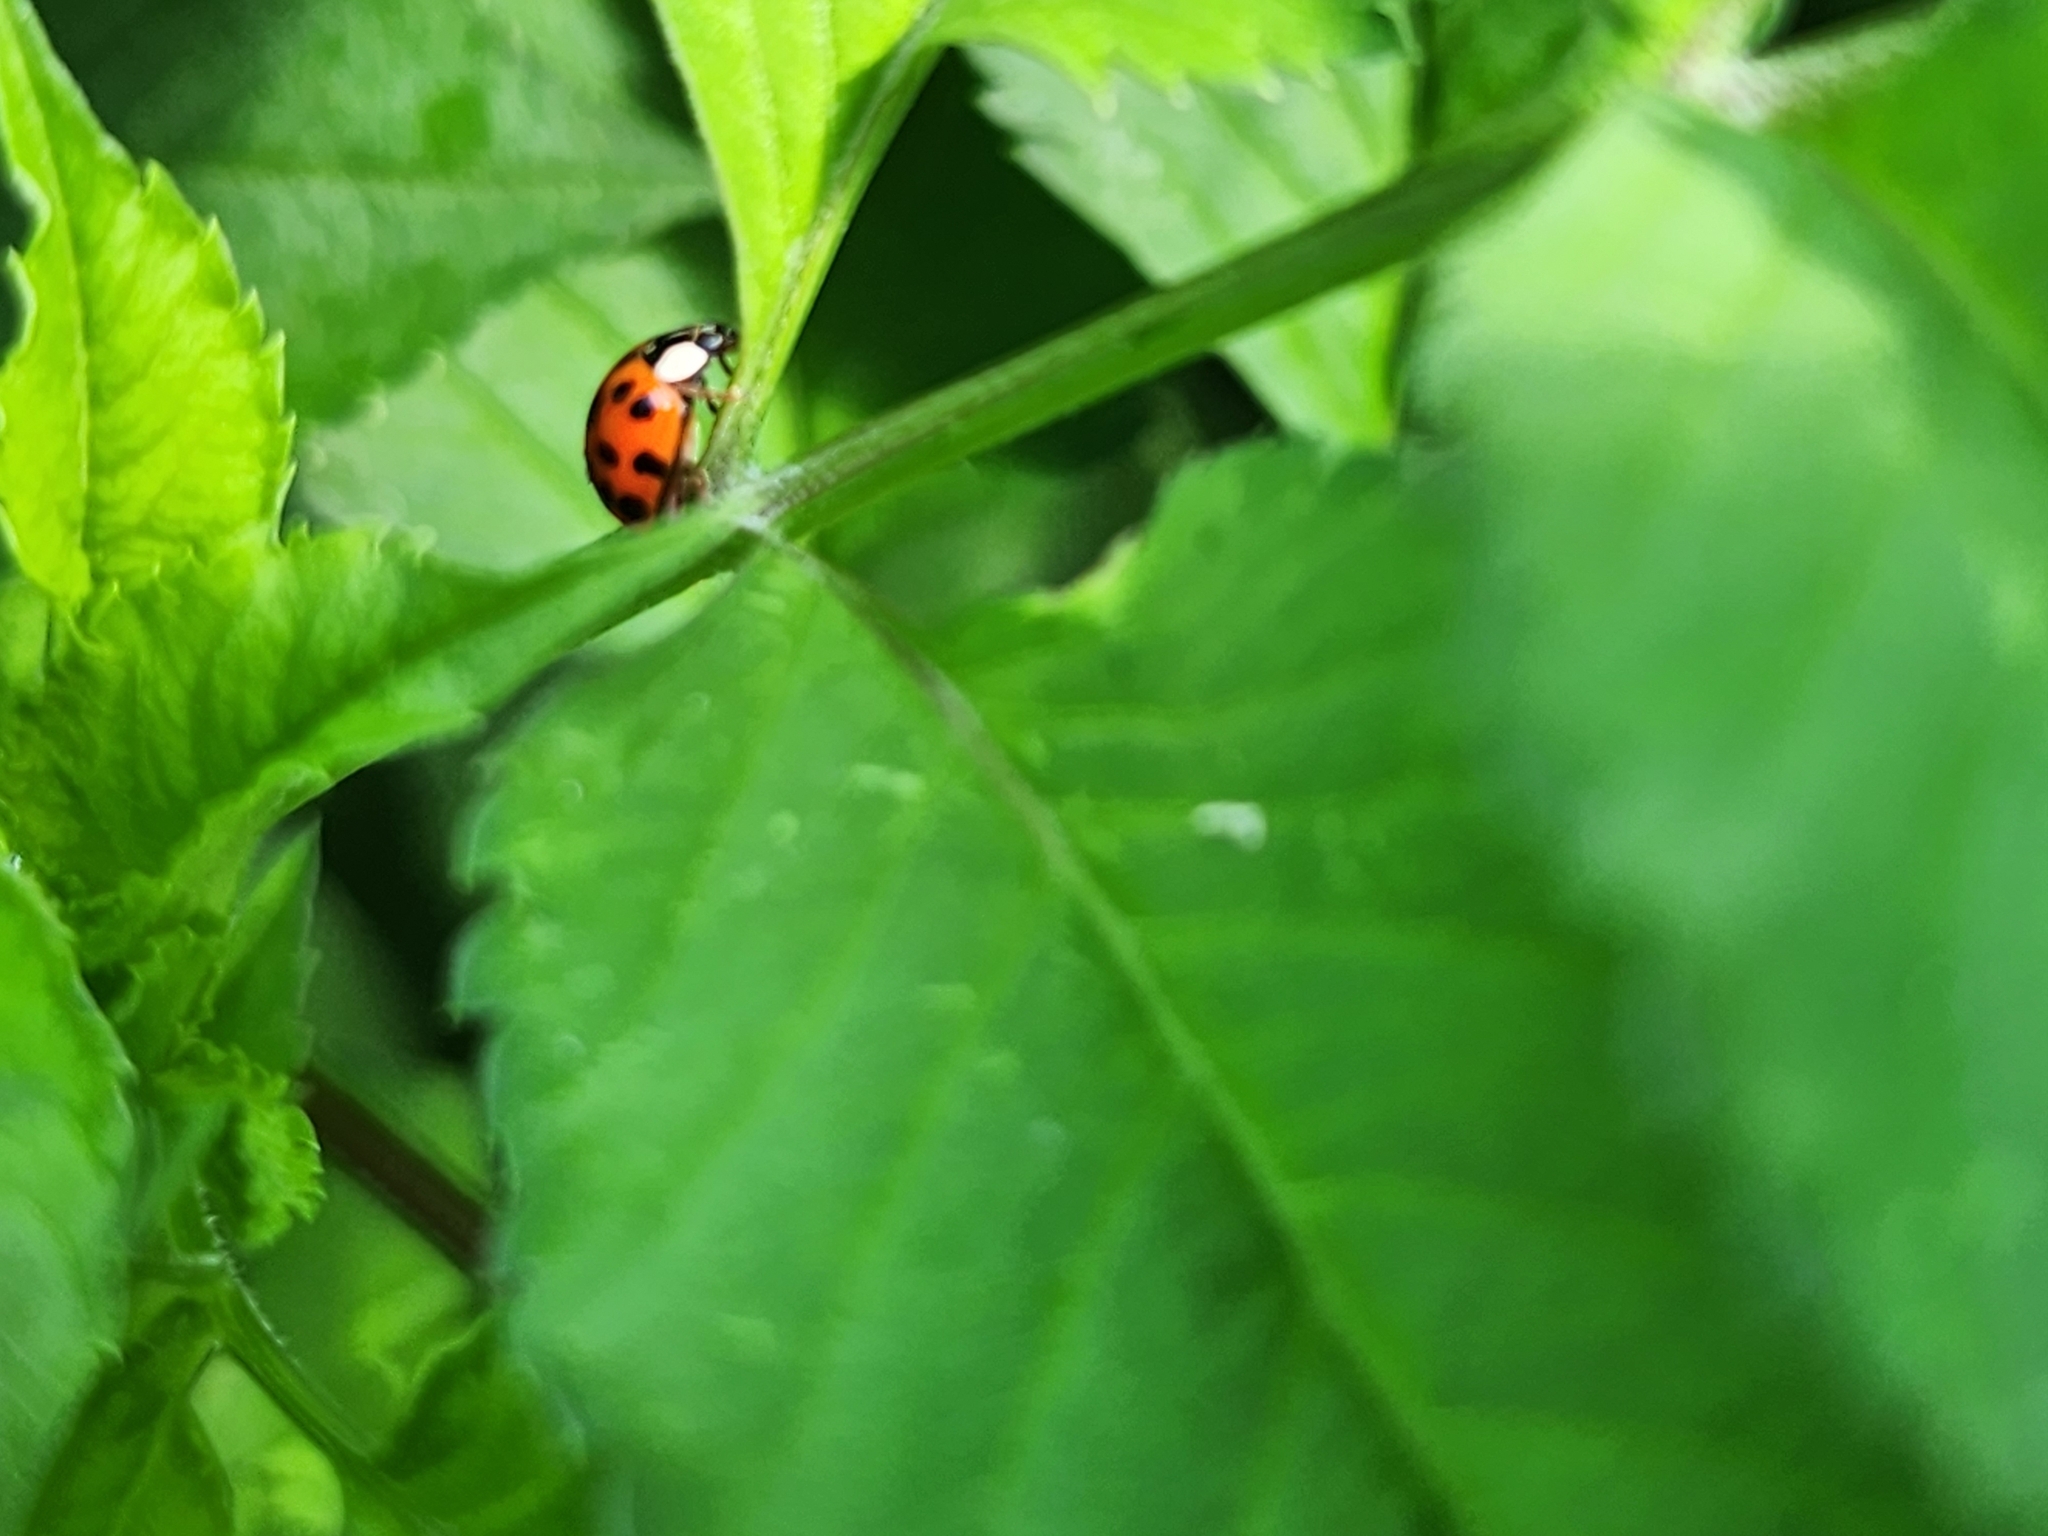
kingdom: Animalia
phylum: Arthropoda
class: Insecta
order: Coleoptera
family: Coccinellidae
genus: Harmonia
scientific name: Harmonia axyridis
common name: Harlequin ladybird
